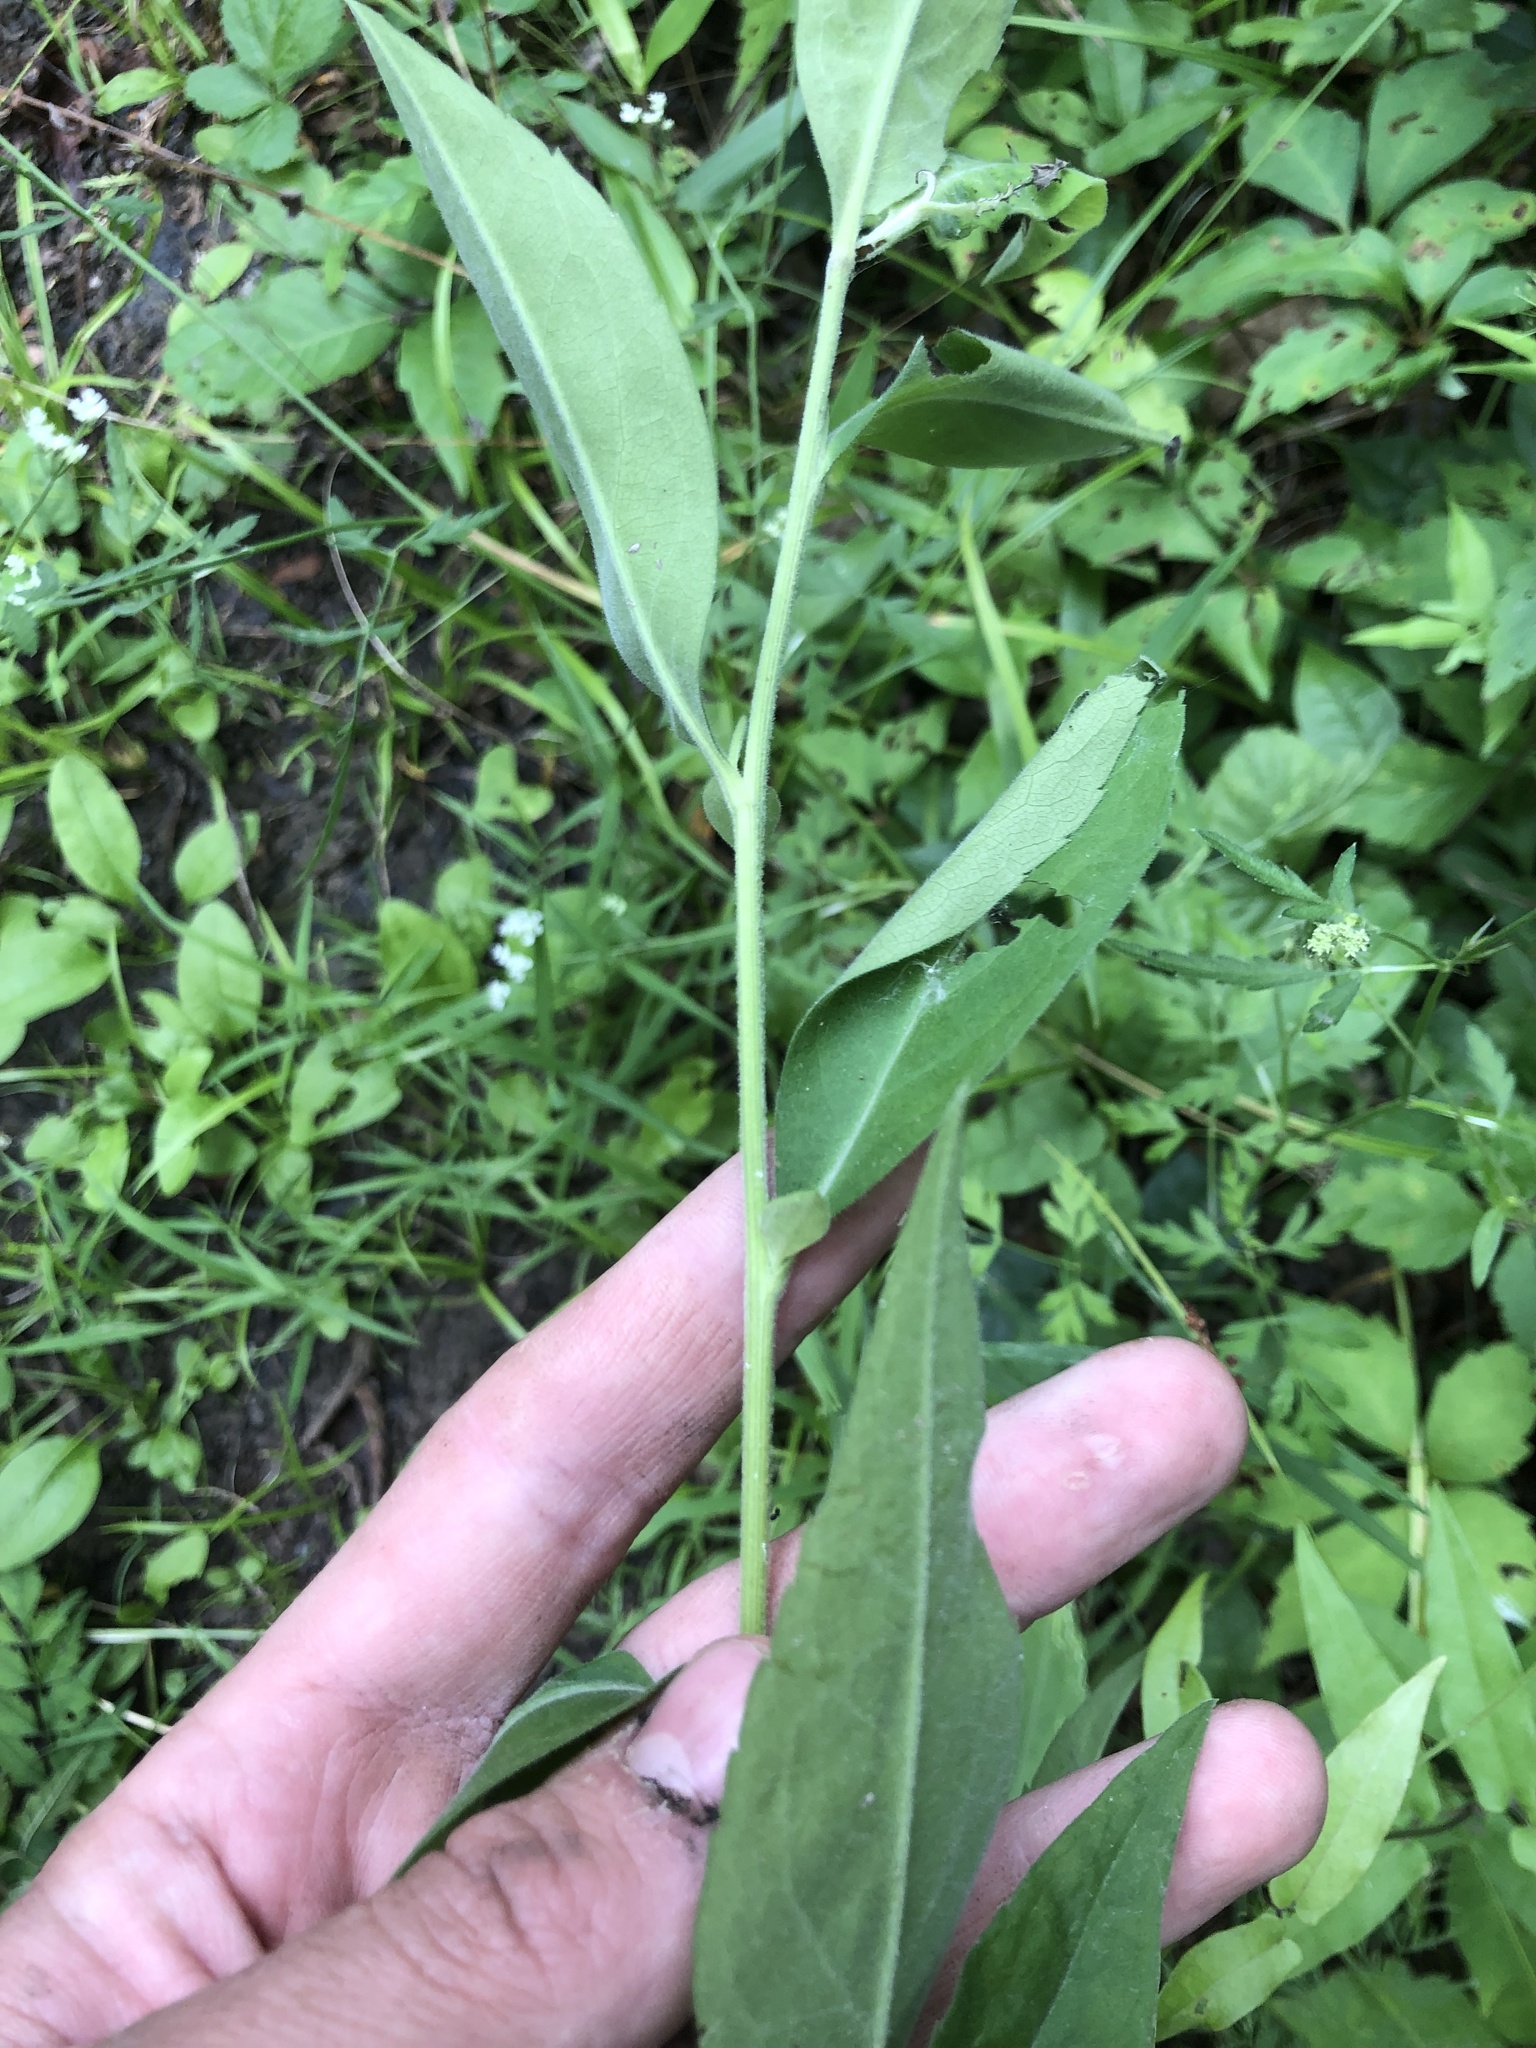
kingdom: Plantae
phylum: Tracheophyta
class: Magnoliopsida
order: Asterales
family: Asteraceae
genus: Symphyotrichum
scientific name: Symphyotrichum ontarionis
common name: Bottomland aster
